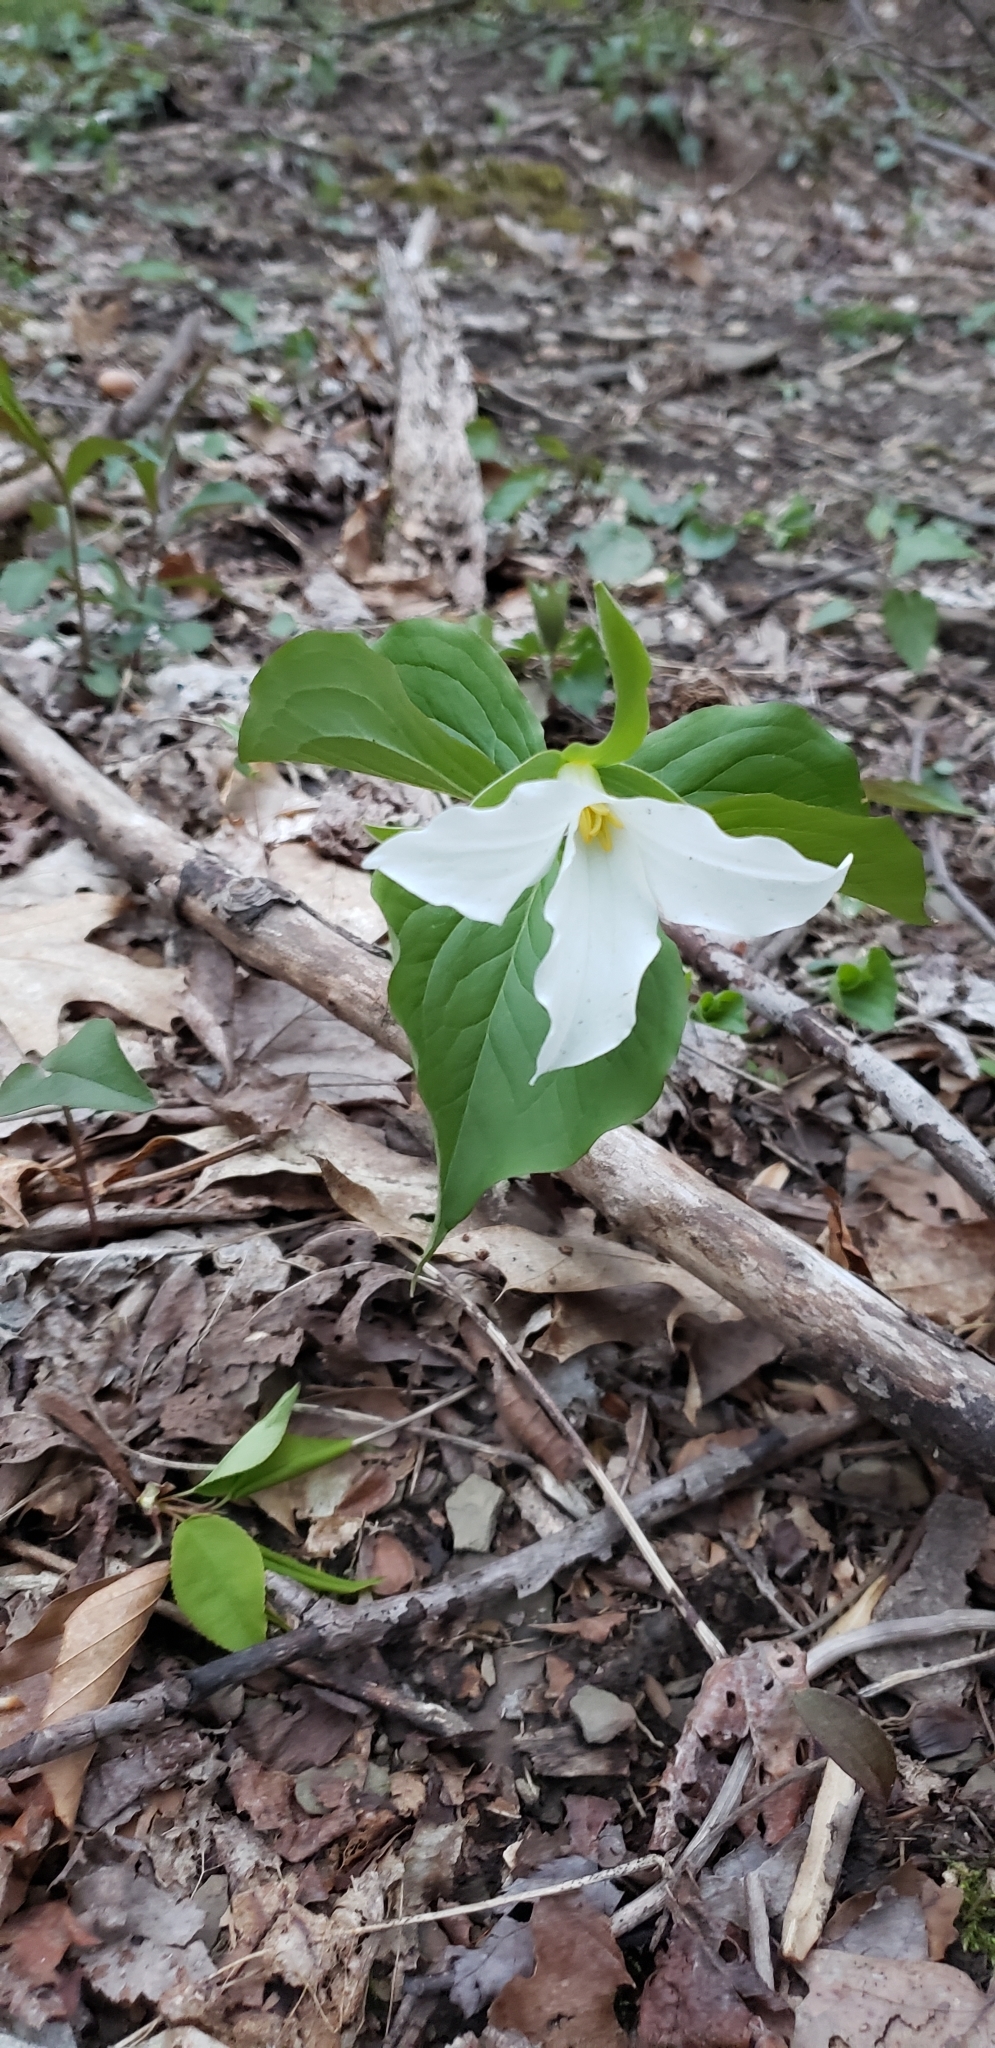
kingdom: Plantae
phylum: Tracheophyta
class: Liliopsida
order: Liliales
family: Melanthiaceae
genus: Trillium
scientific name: Trillium grandiflorum
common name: Great white trillium
